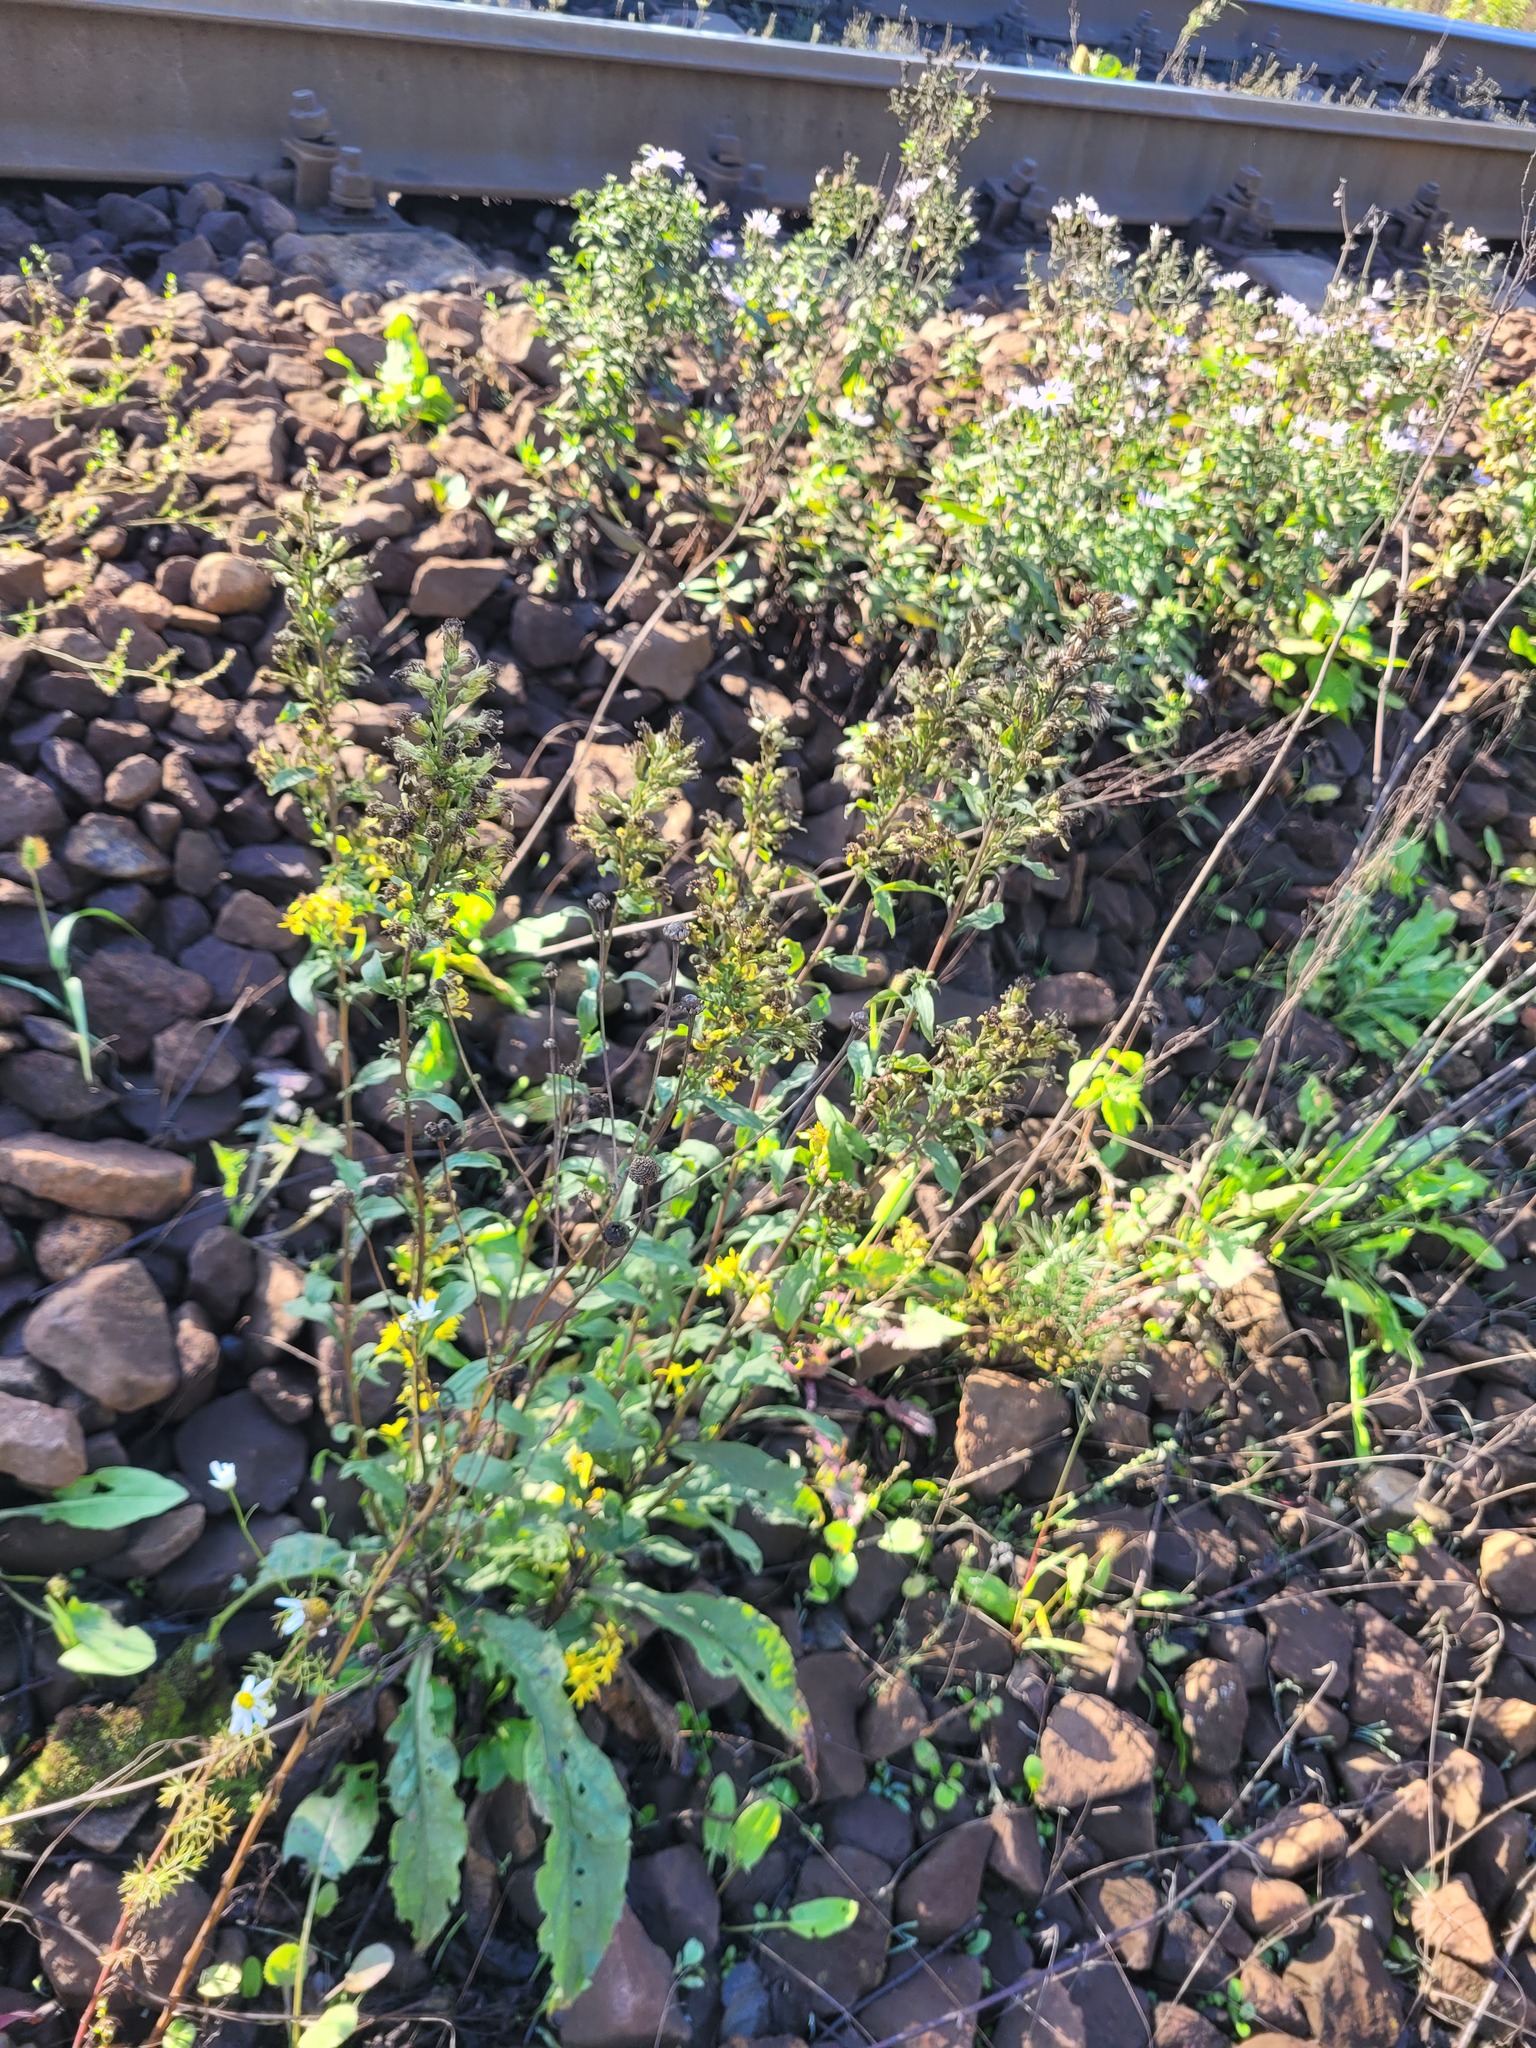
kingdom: Plantae
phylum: Tracheophyta
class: Magnoliopsida
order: Asterales
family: Asteraceae
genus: Solidago
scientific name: Solidago virgaurea
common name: Goldenrod
